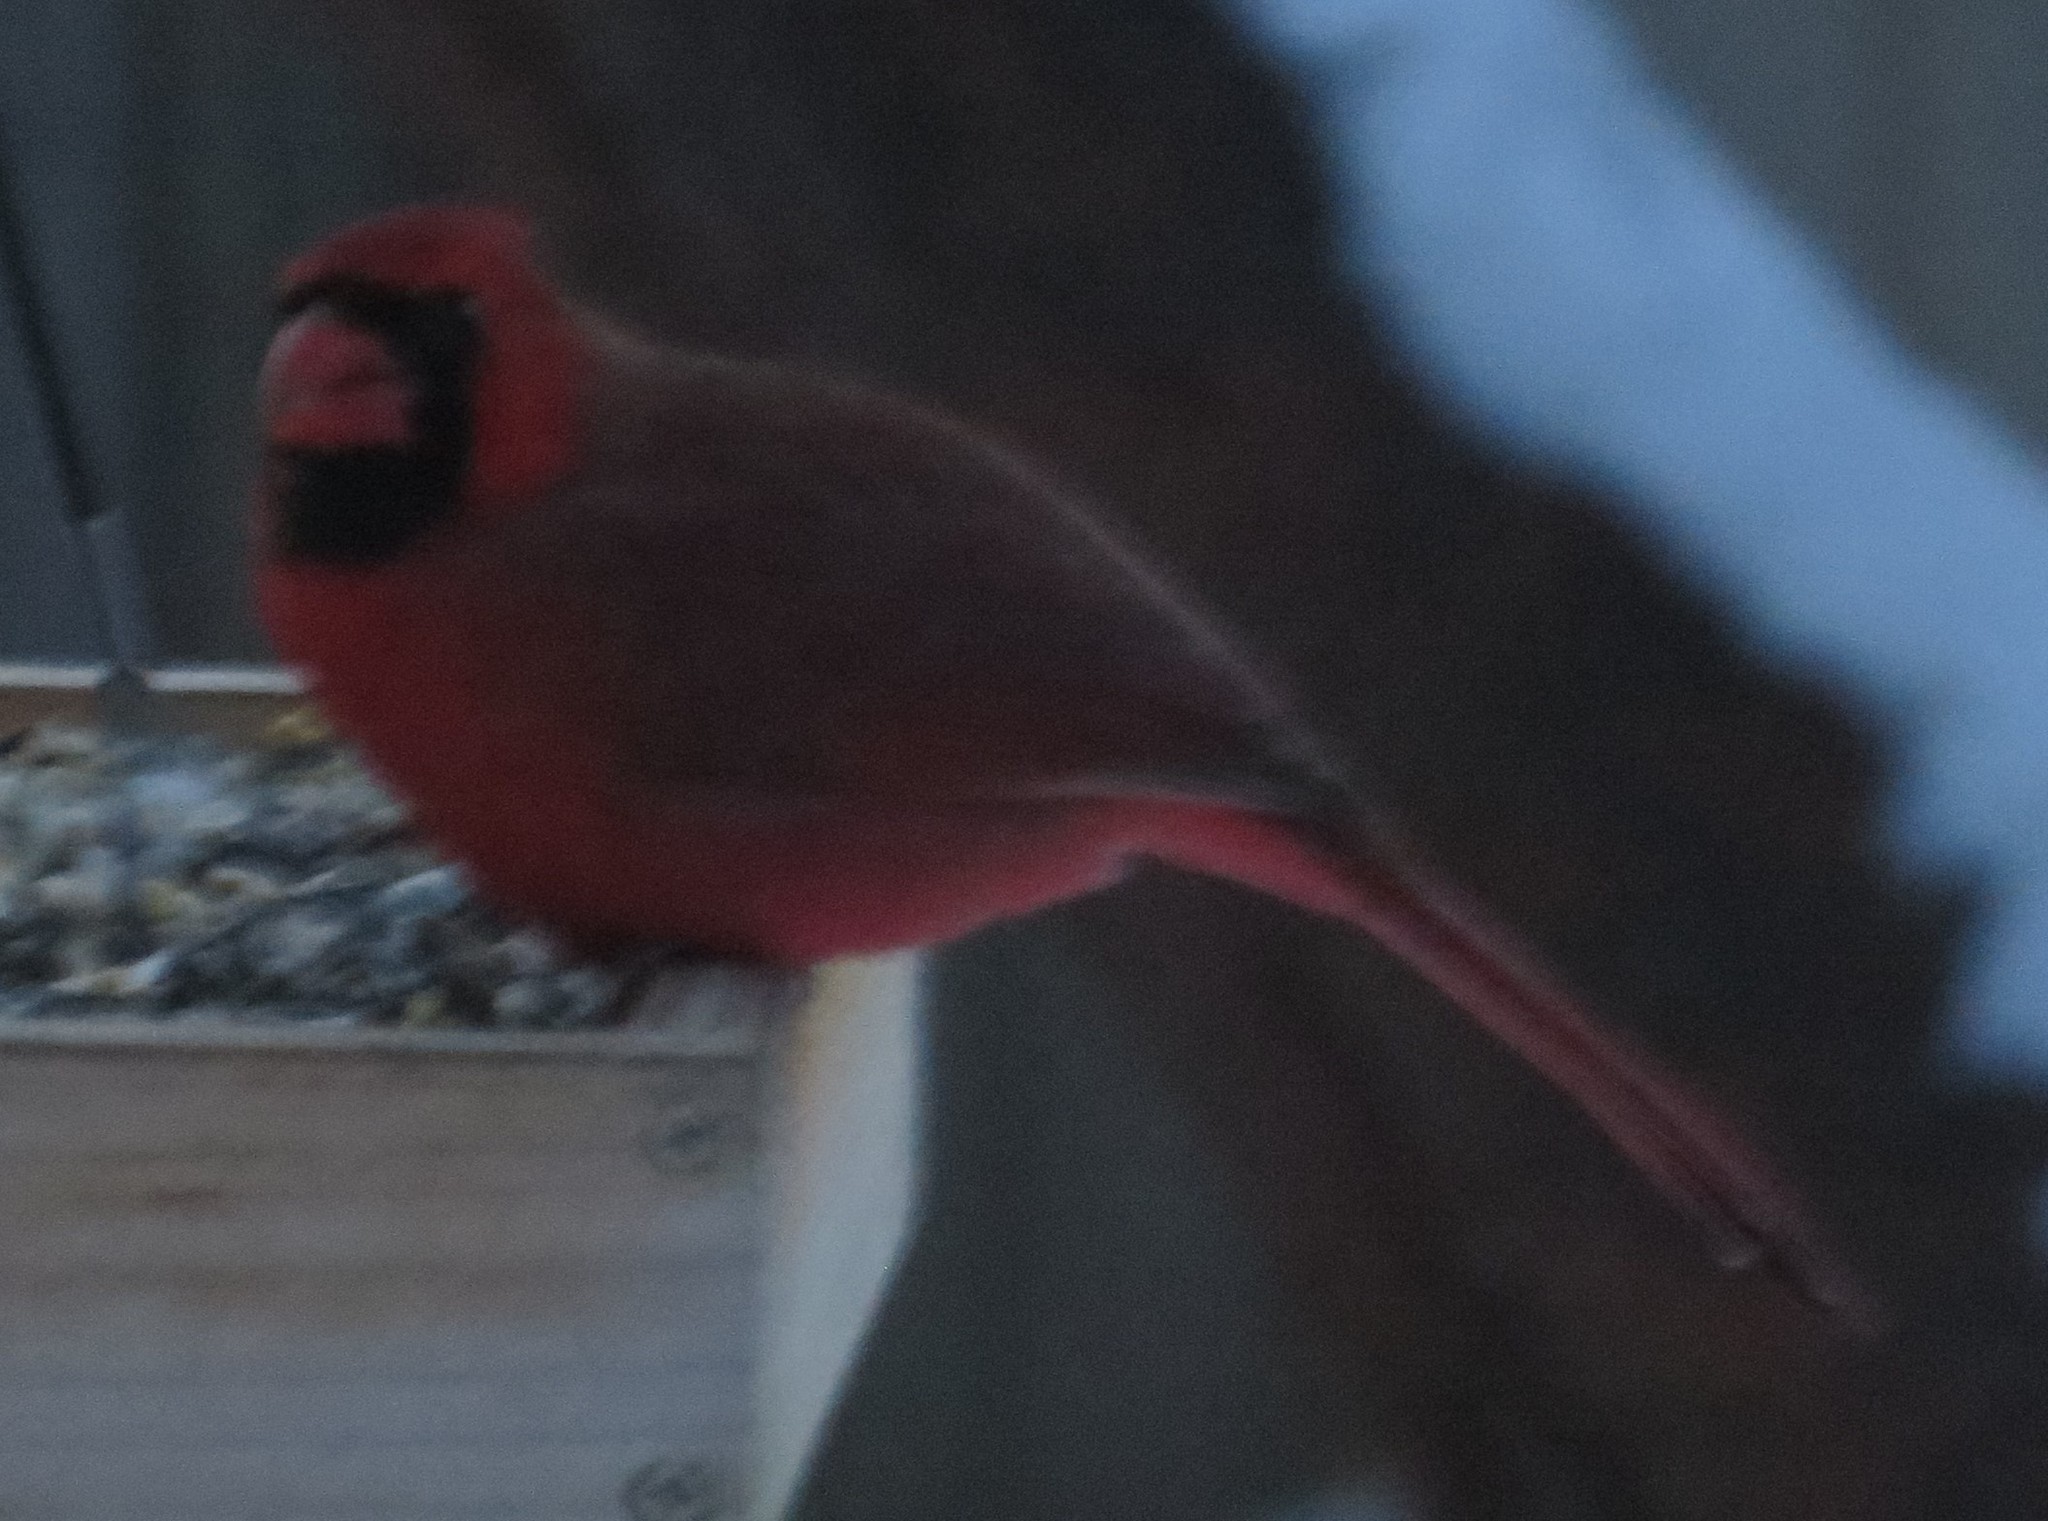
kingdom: Animalia
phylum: Chordata
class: Aves
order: Passeriformes
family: Cardinalidae
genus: Cardinalis
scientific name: Cardinalis cardinalis
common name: Northern cardinal
